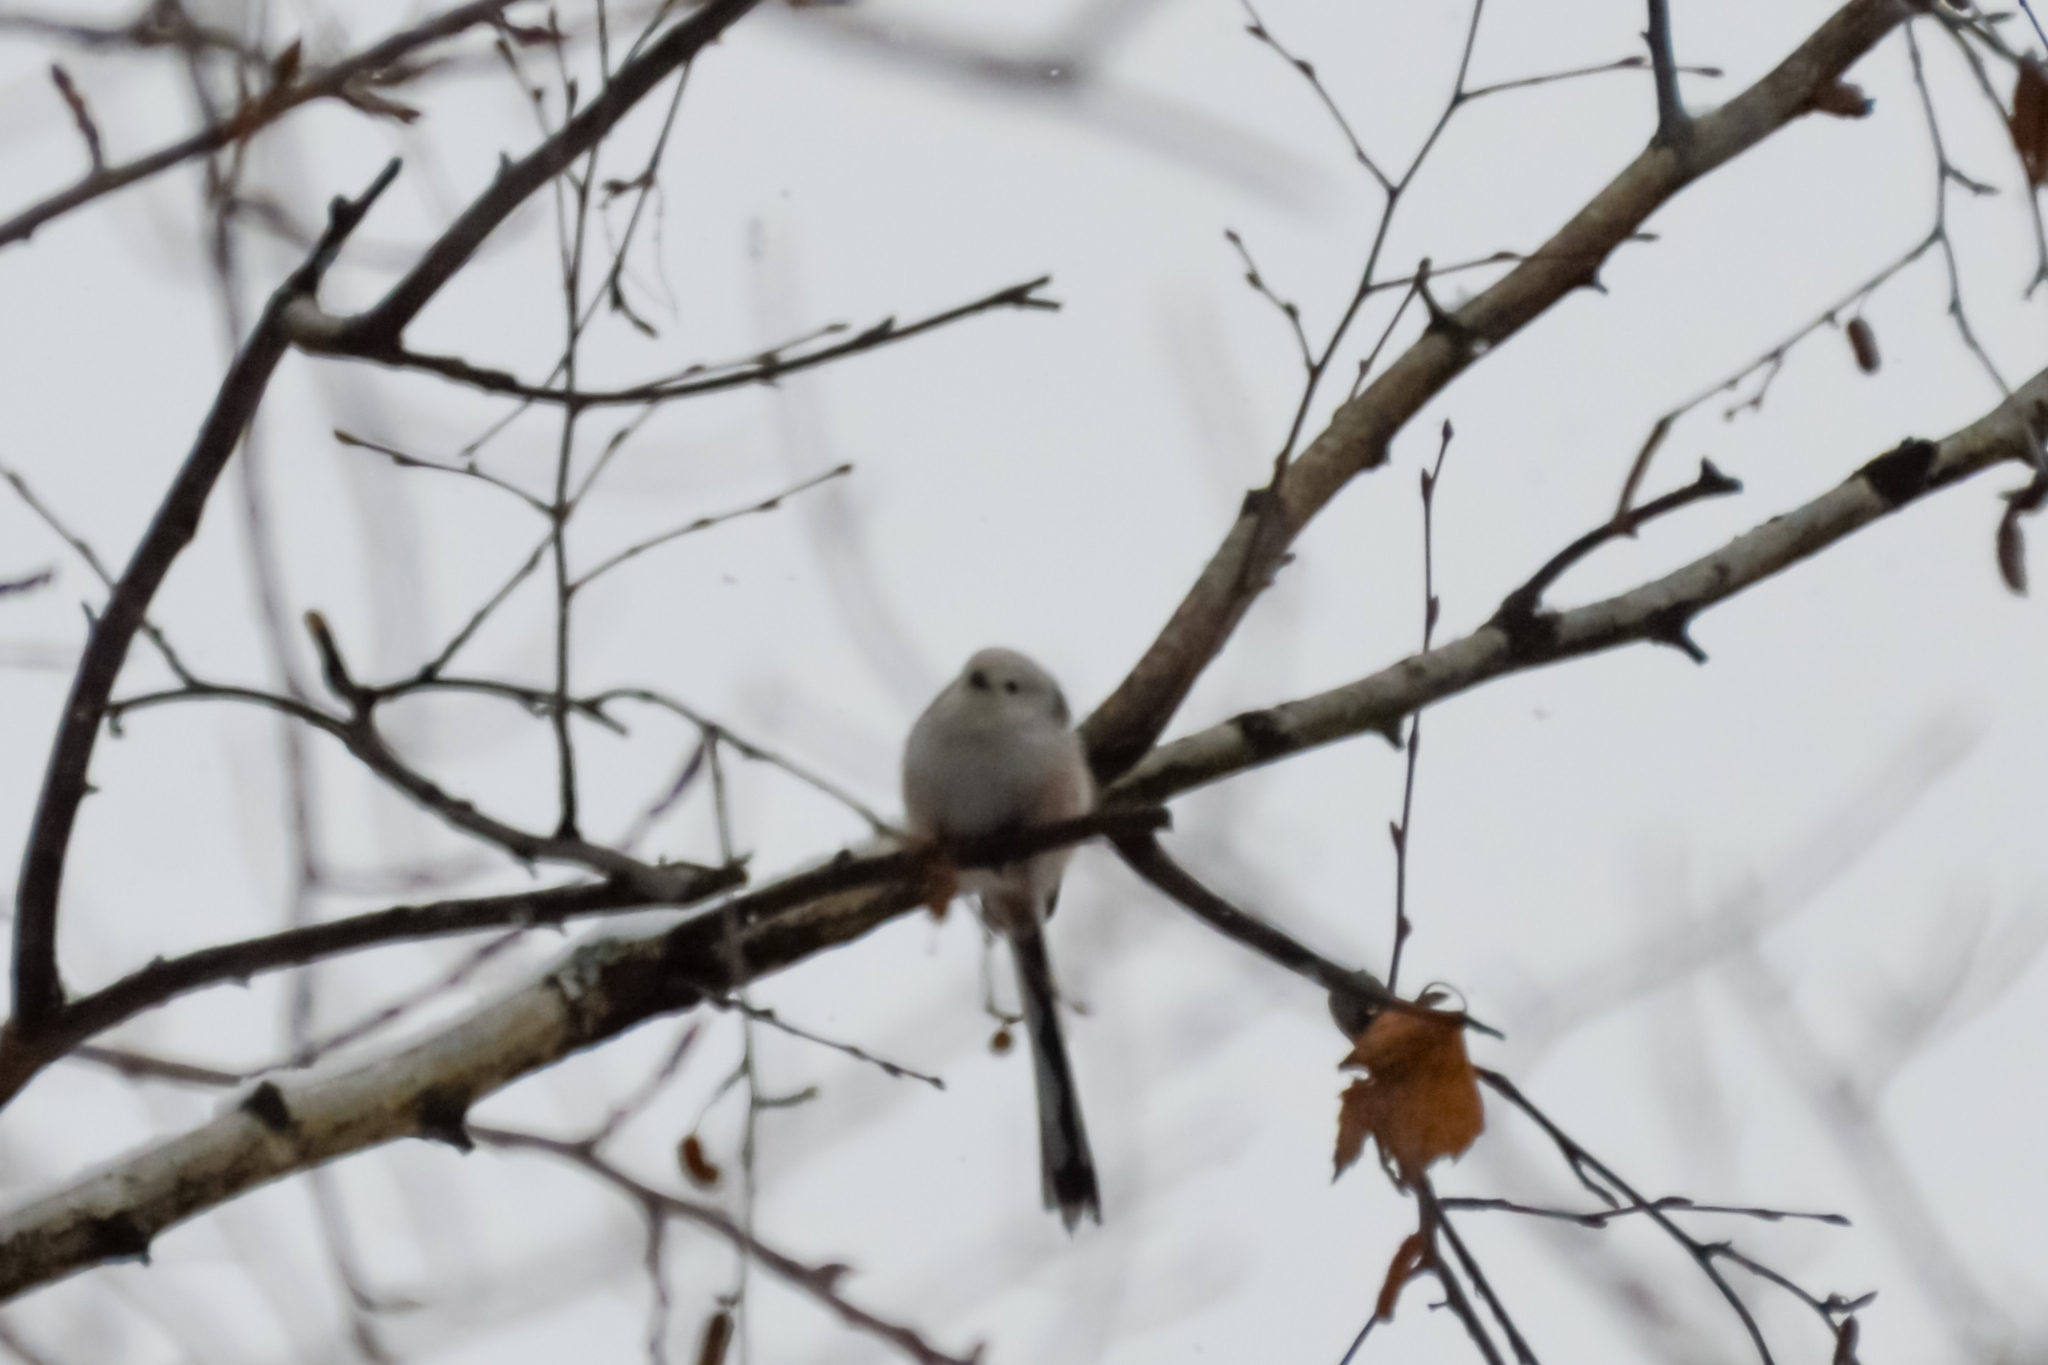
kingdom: Animalia
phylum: Chordata
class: Aves
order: Passeriformes
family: Aegithalidae
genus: Aegithalos
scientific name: Aegithalos caudatus
